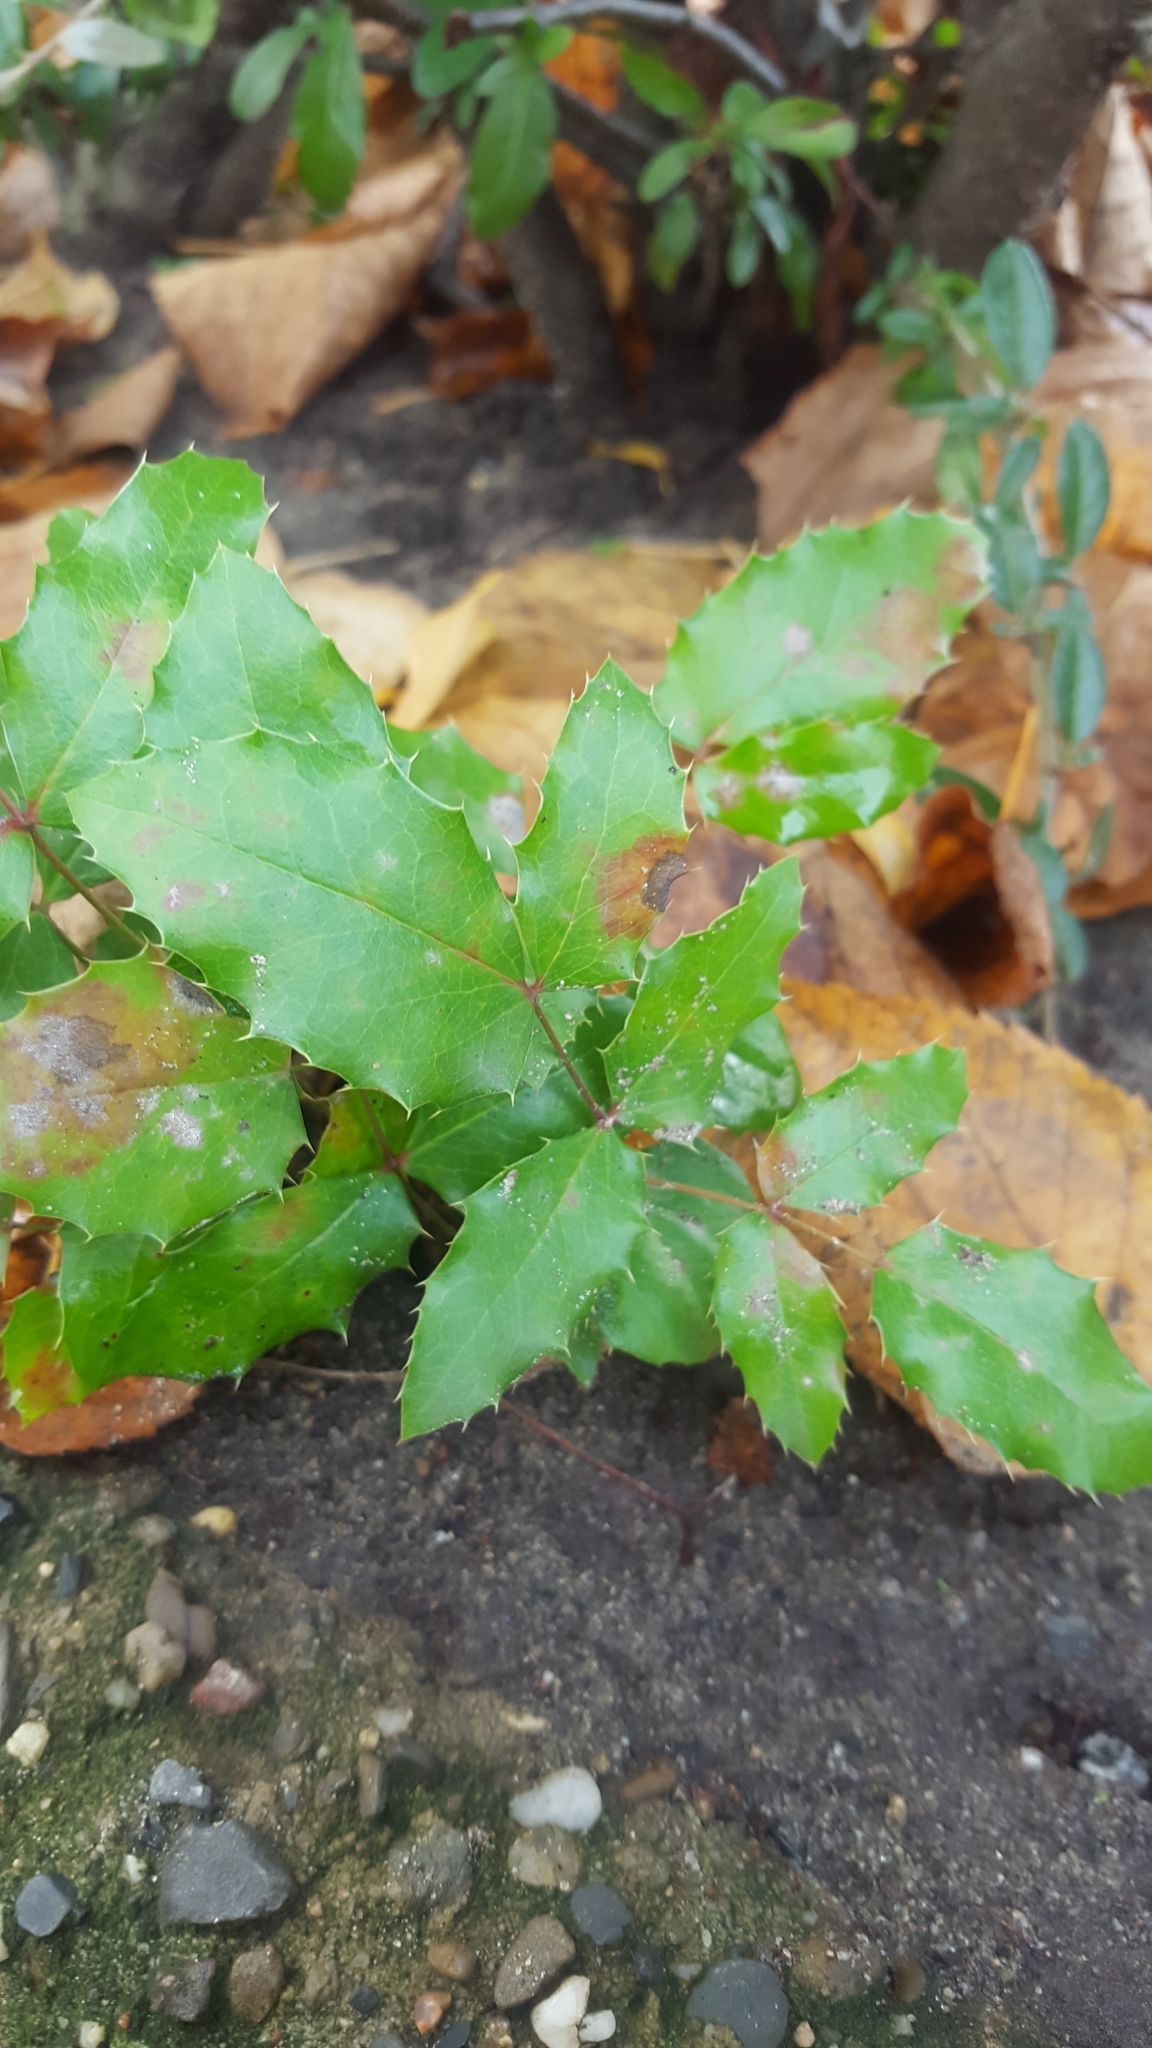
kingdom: Plantae
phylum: Tracheophyta
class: Magnoliopsida
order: Ranunculales
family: Berberidaceae
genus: Mahonia
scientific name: Mahonia aquifolium
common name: Oregon-grape
